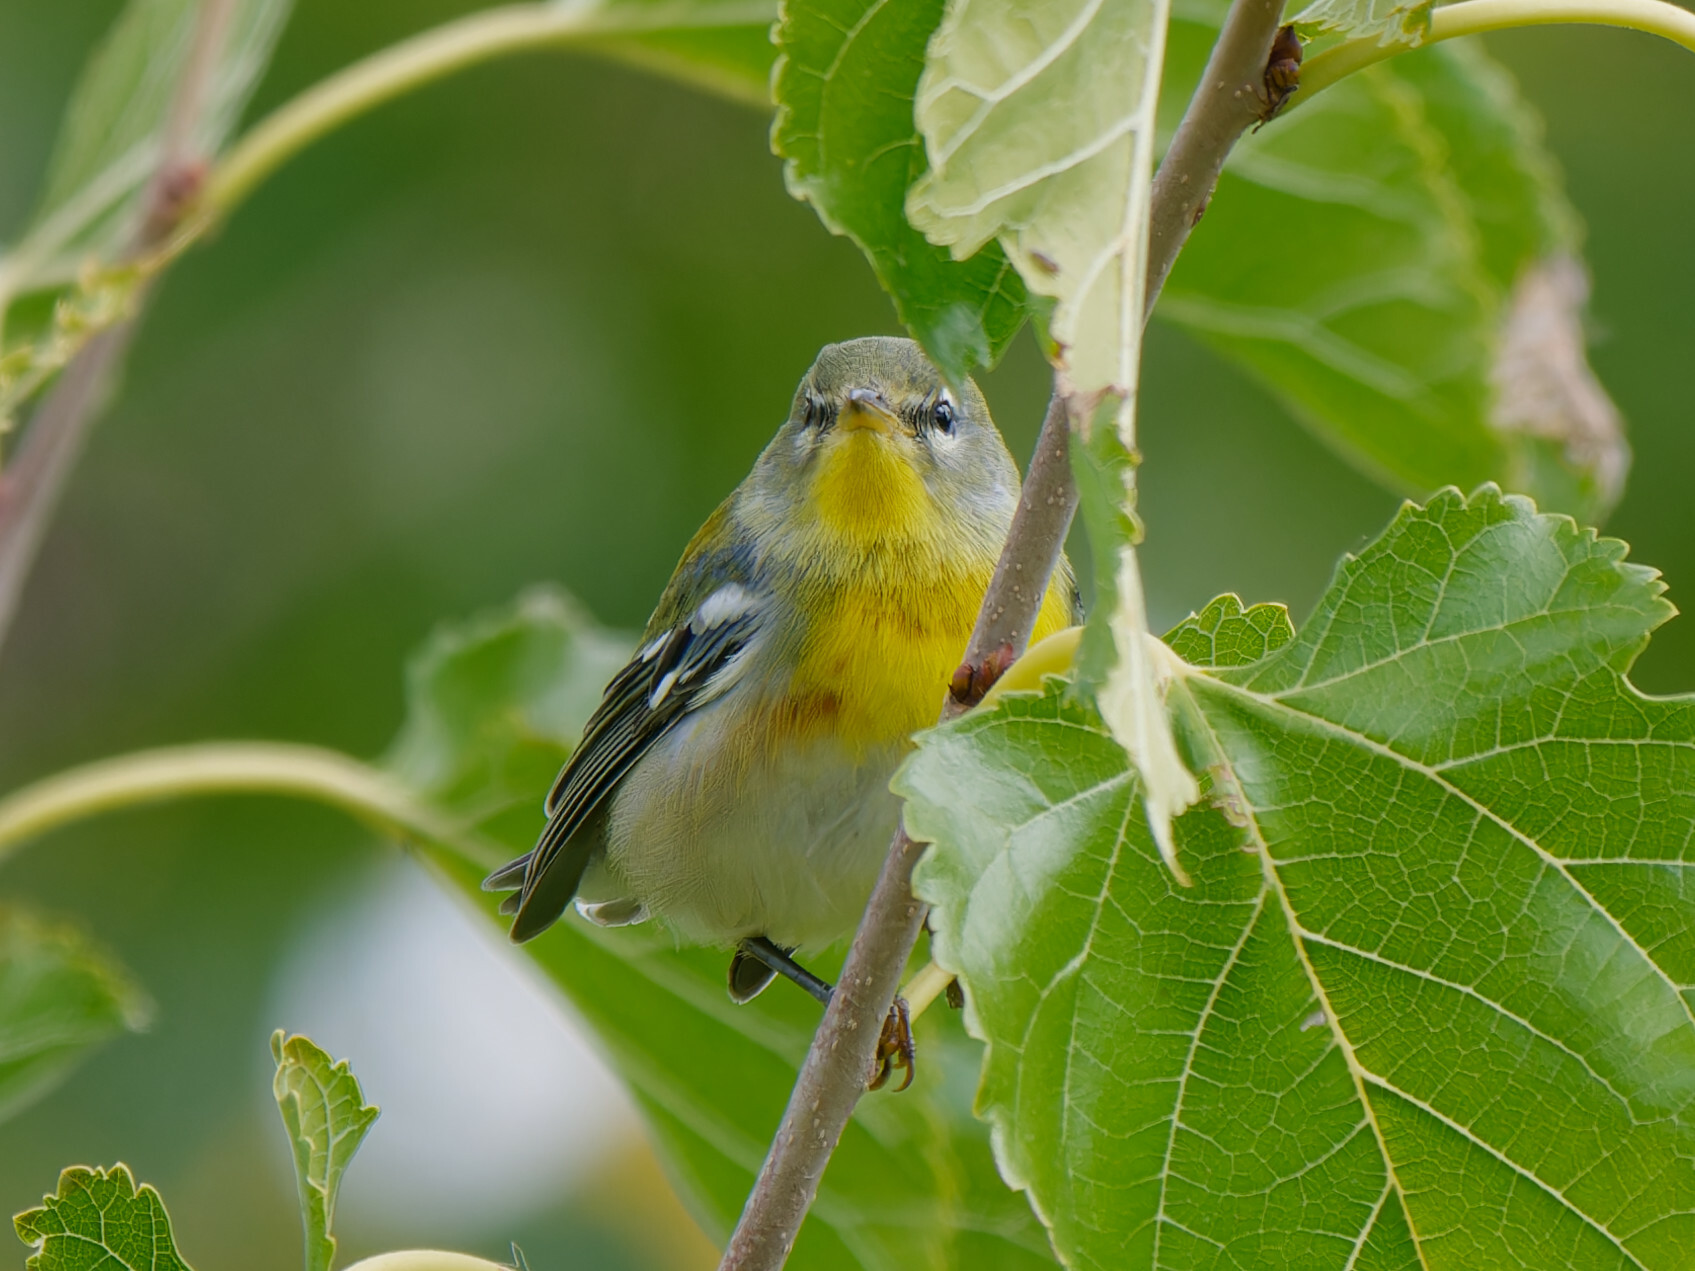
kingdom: Animalia
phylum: Chordata
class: Aves
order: Passeriformes
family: Parulidae
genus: Setophaga
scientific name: Setophaga americana
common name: Northern parula
